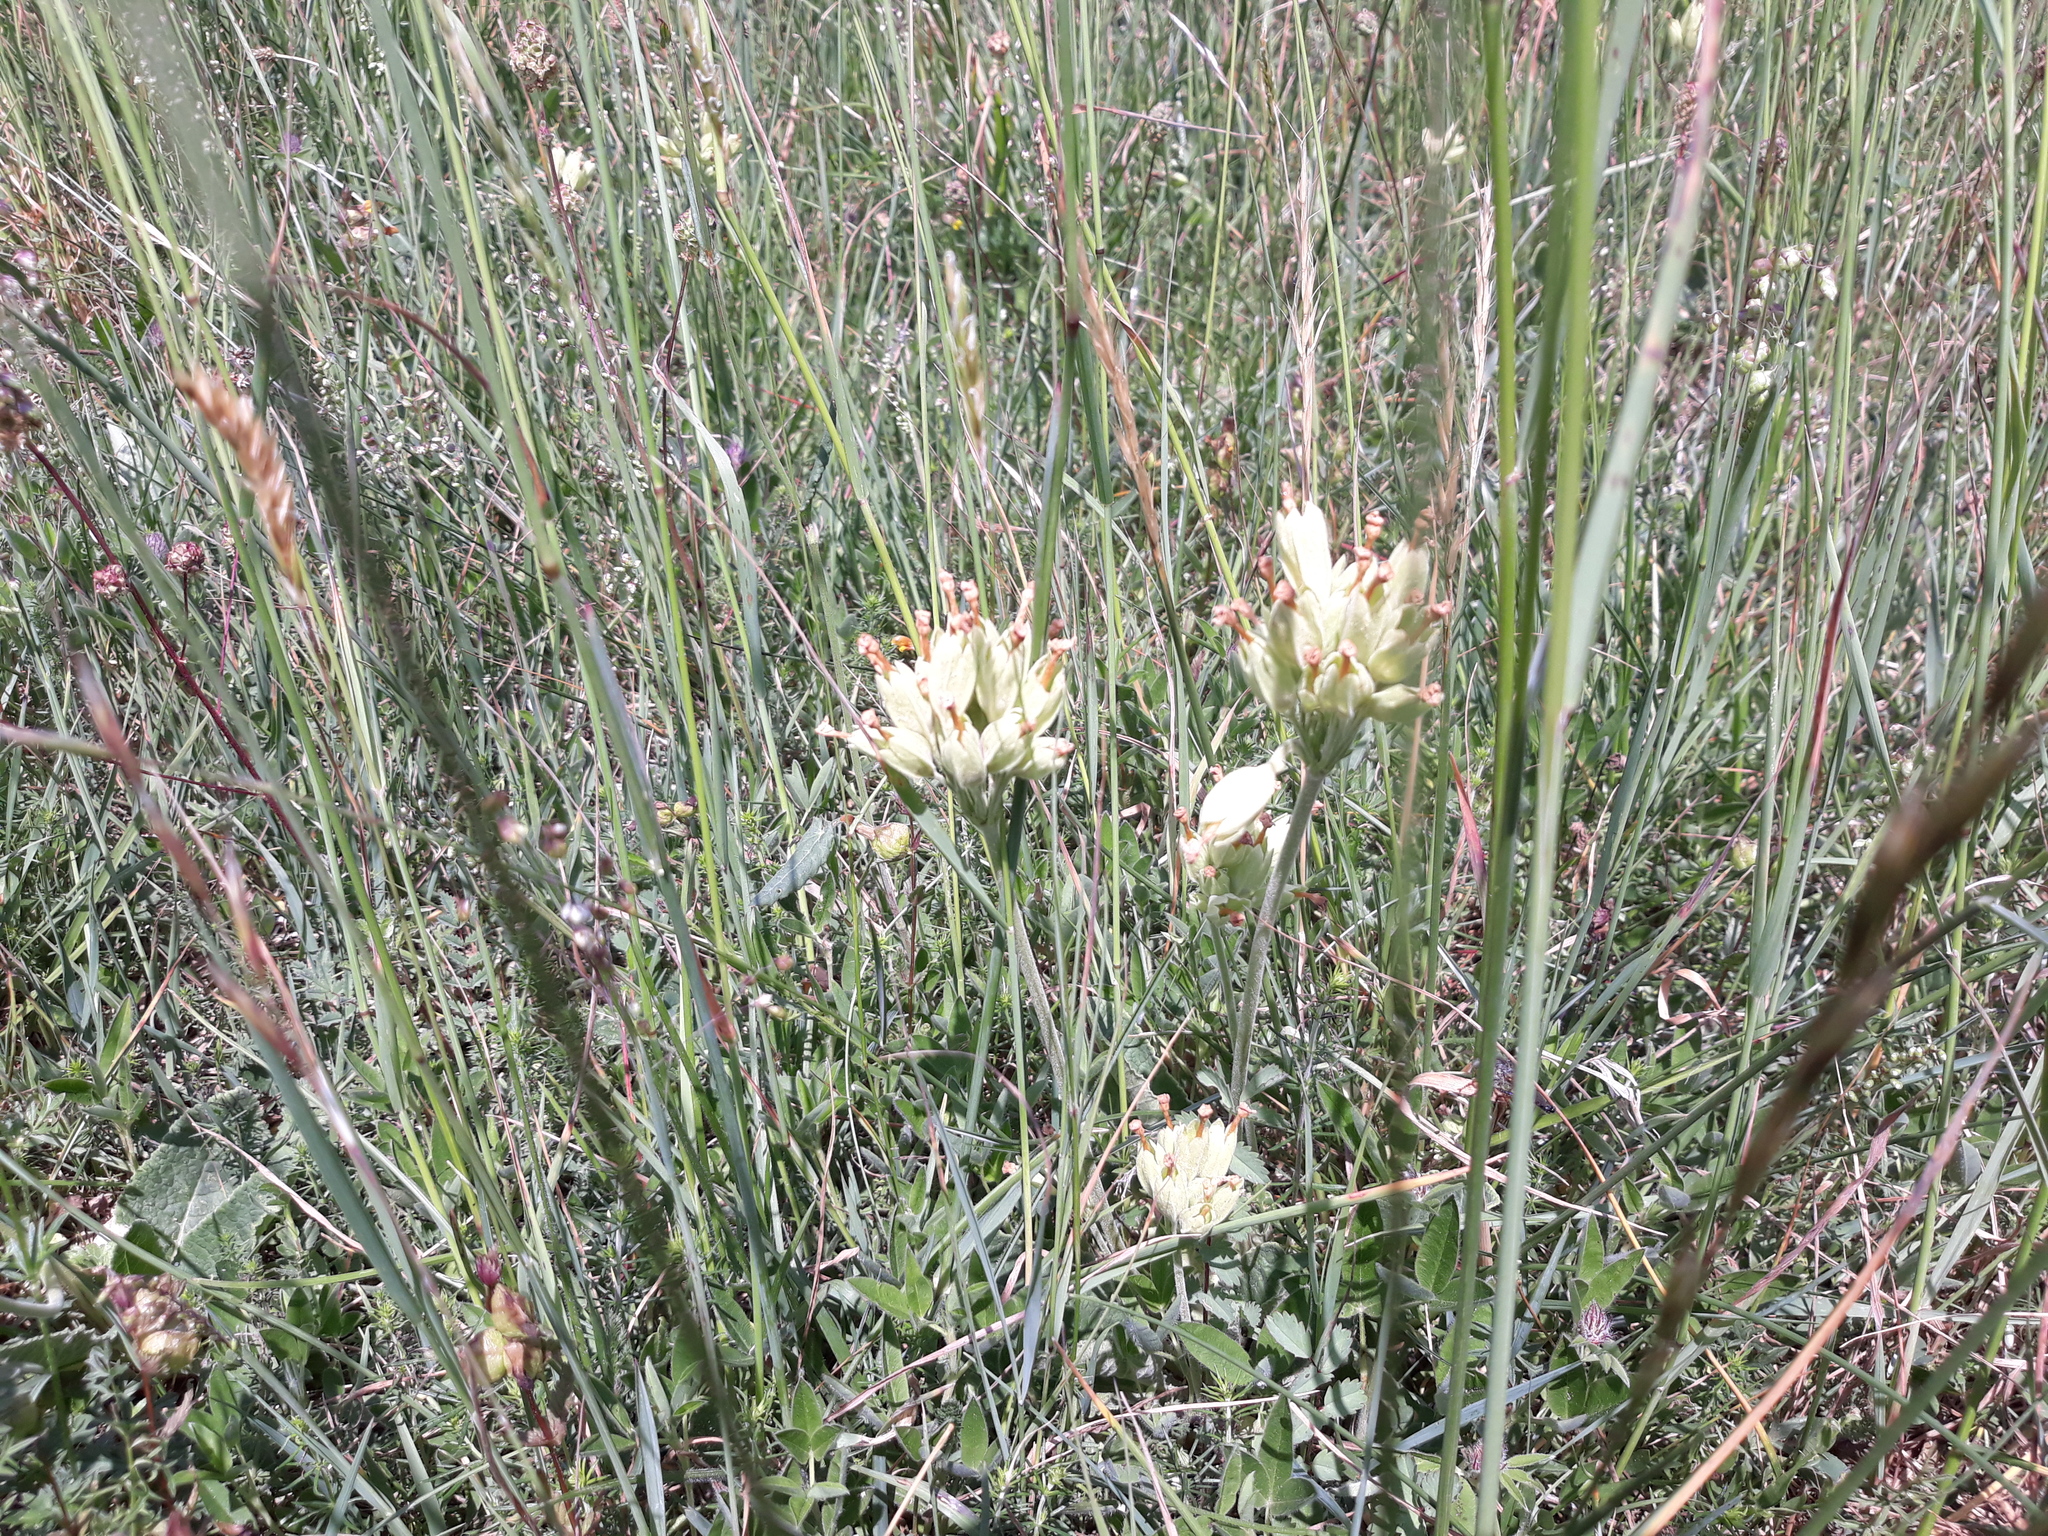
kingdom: Plantae
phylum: Tracheophyta
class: Magnoliopsida
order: Ericales
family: Primulaceae
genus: Primula
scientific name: Primula veris
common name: Cowslip
